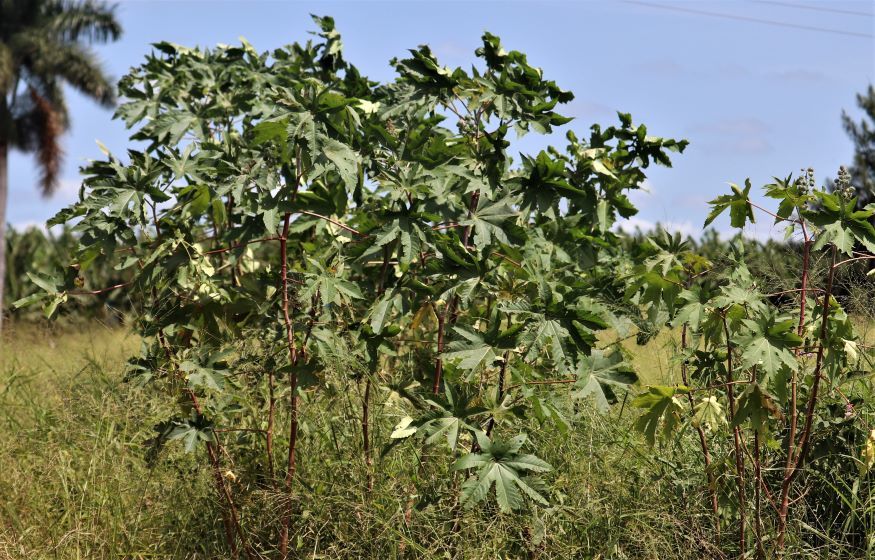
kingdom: Plantae
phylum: Tracheophyta
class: Magnoliopsida
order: Malpighiales
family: Euphorbiaceae
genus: Ricinus
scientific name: Ricinus communis
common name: Castor-oil-plant
